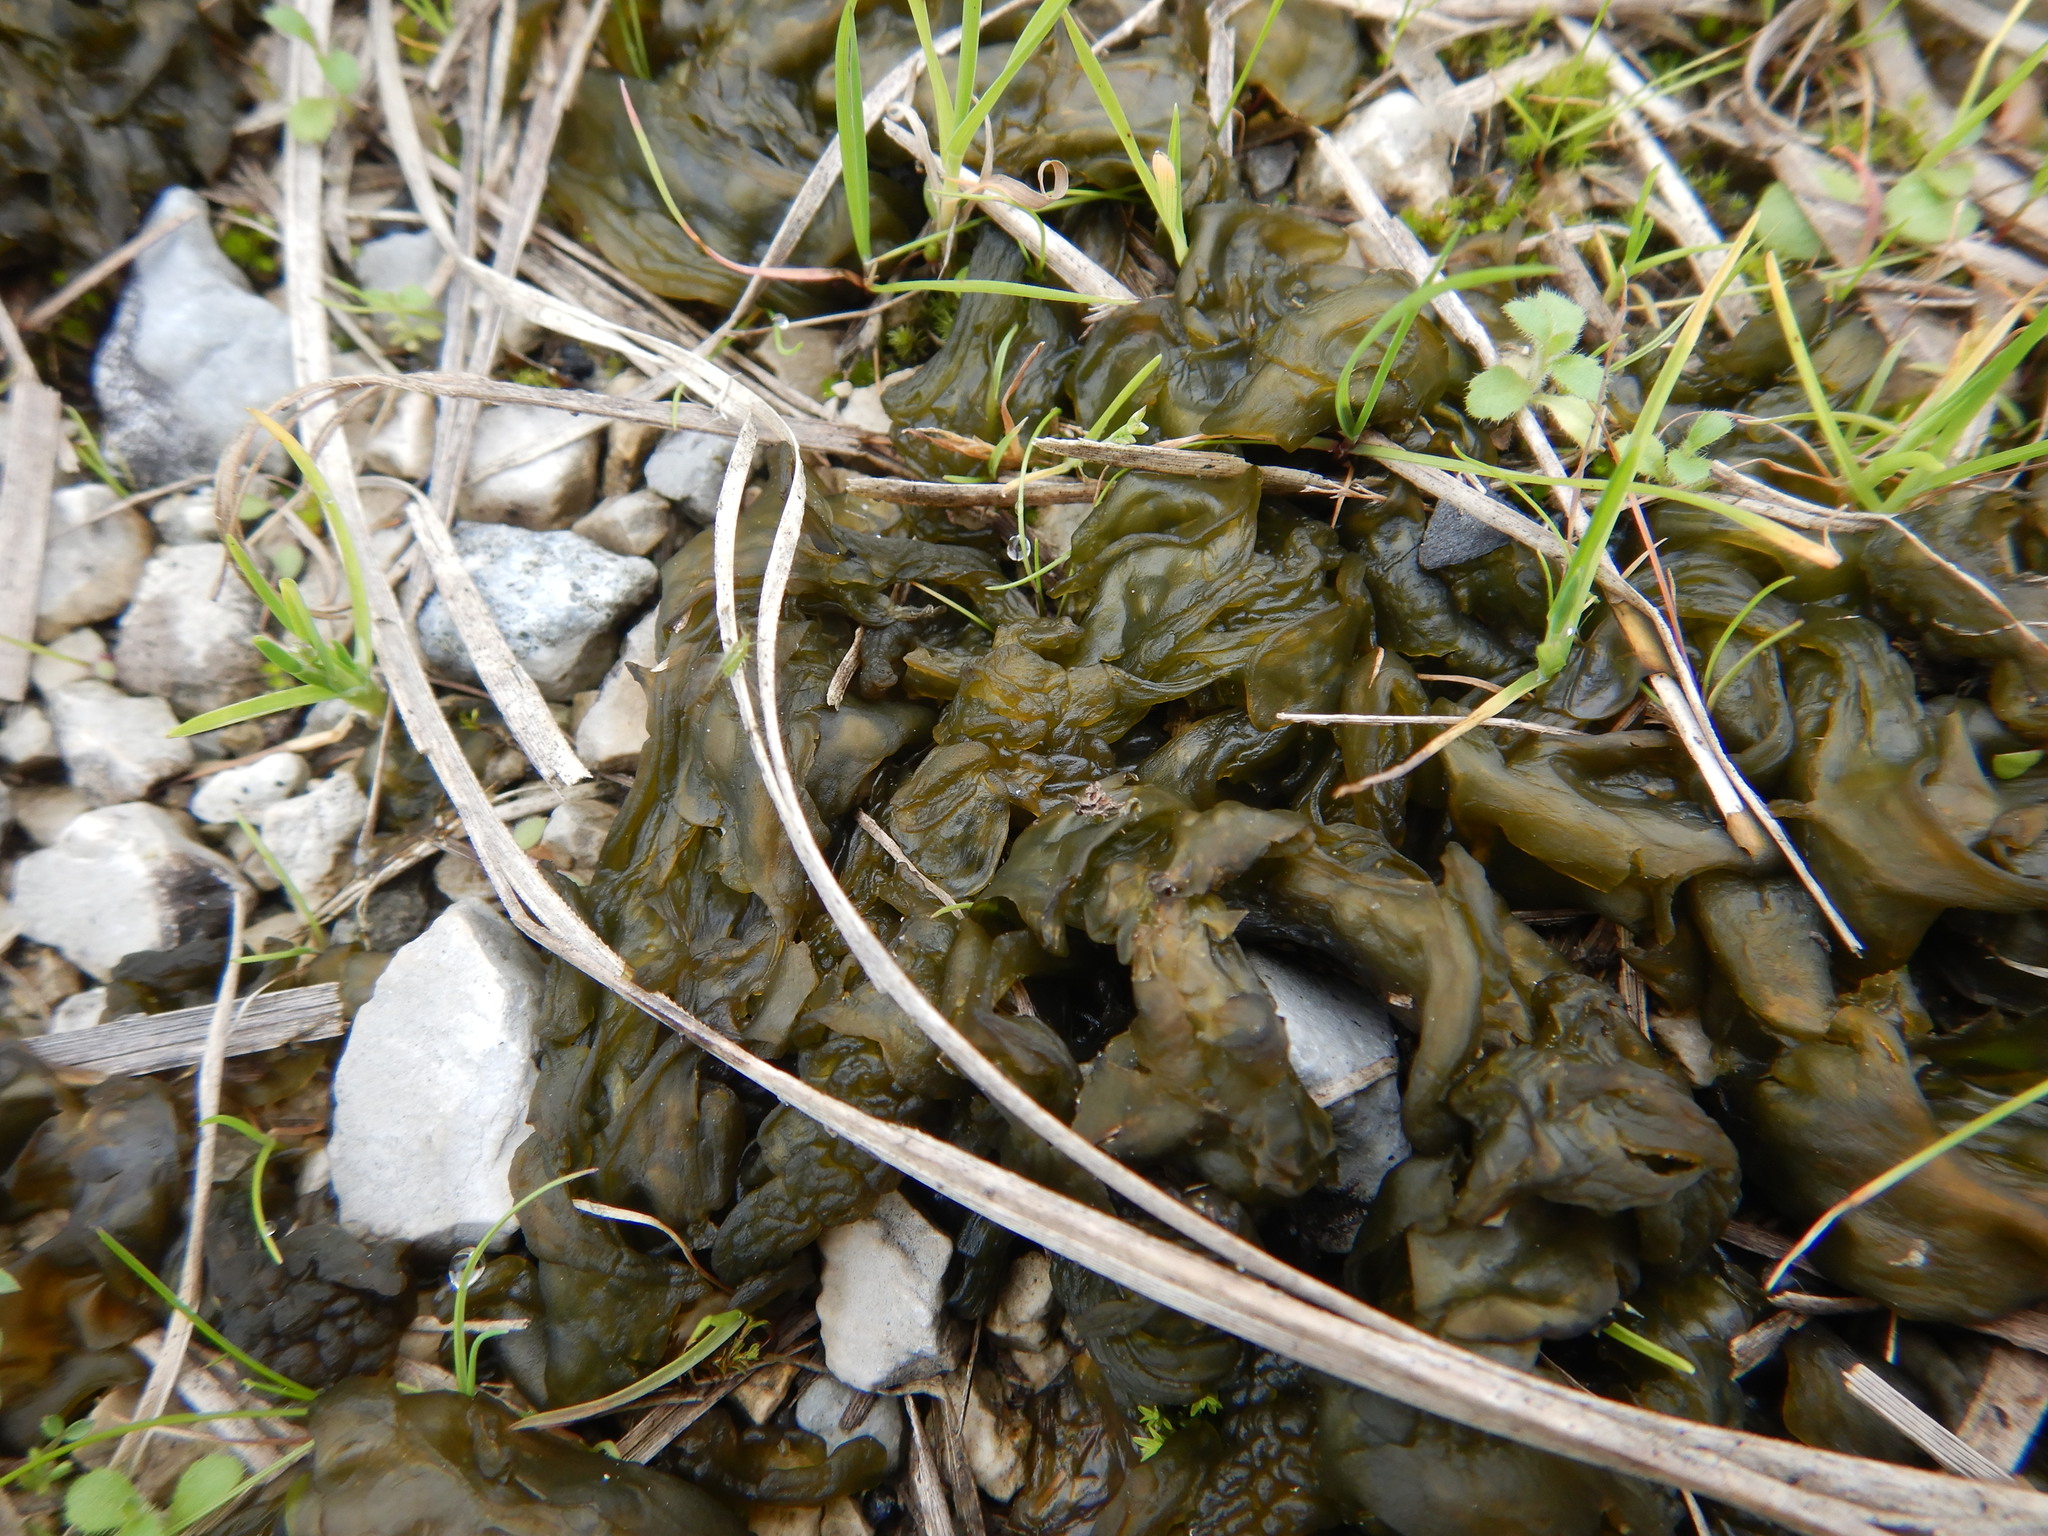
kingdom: Bacteria
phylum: Cyanobacteria
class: Cyanobacteriia
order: Cyanobacteriales
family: Nostocaceae
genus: Nostoc
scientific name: Nostoc commune
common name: Star jelly
